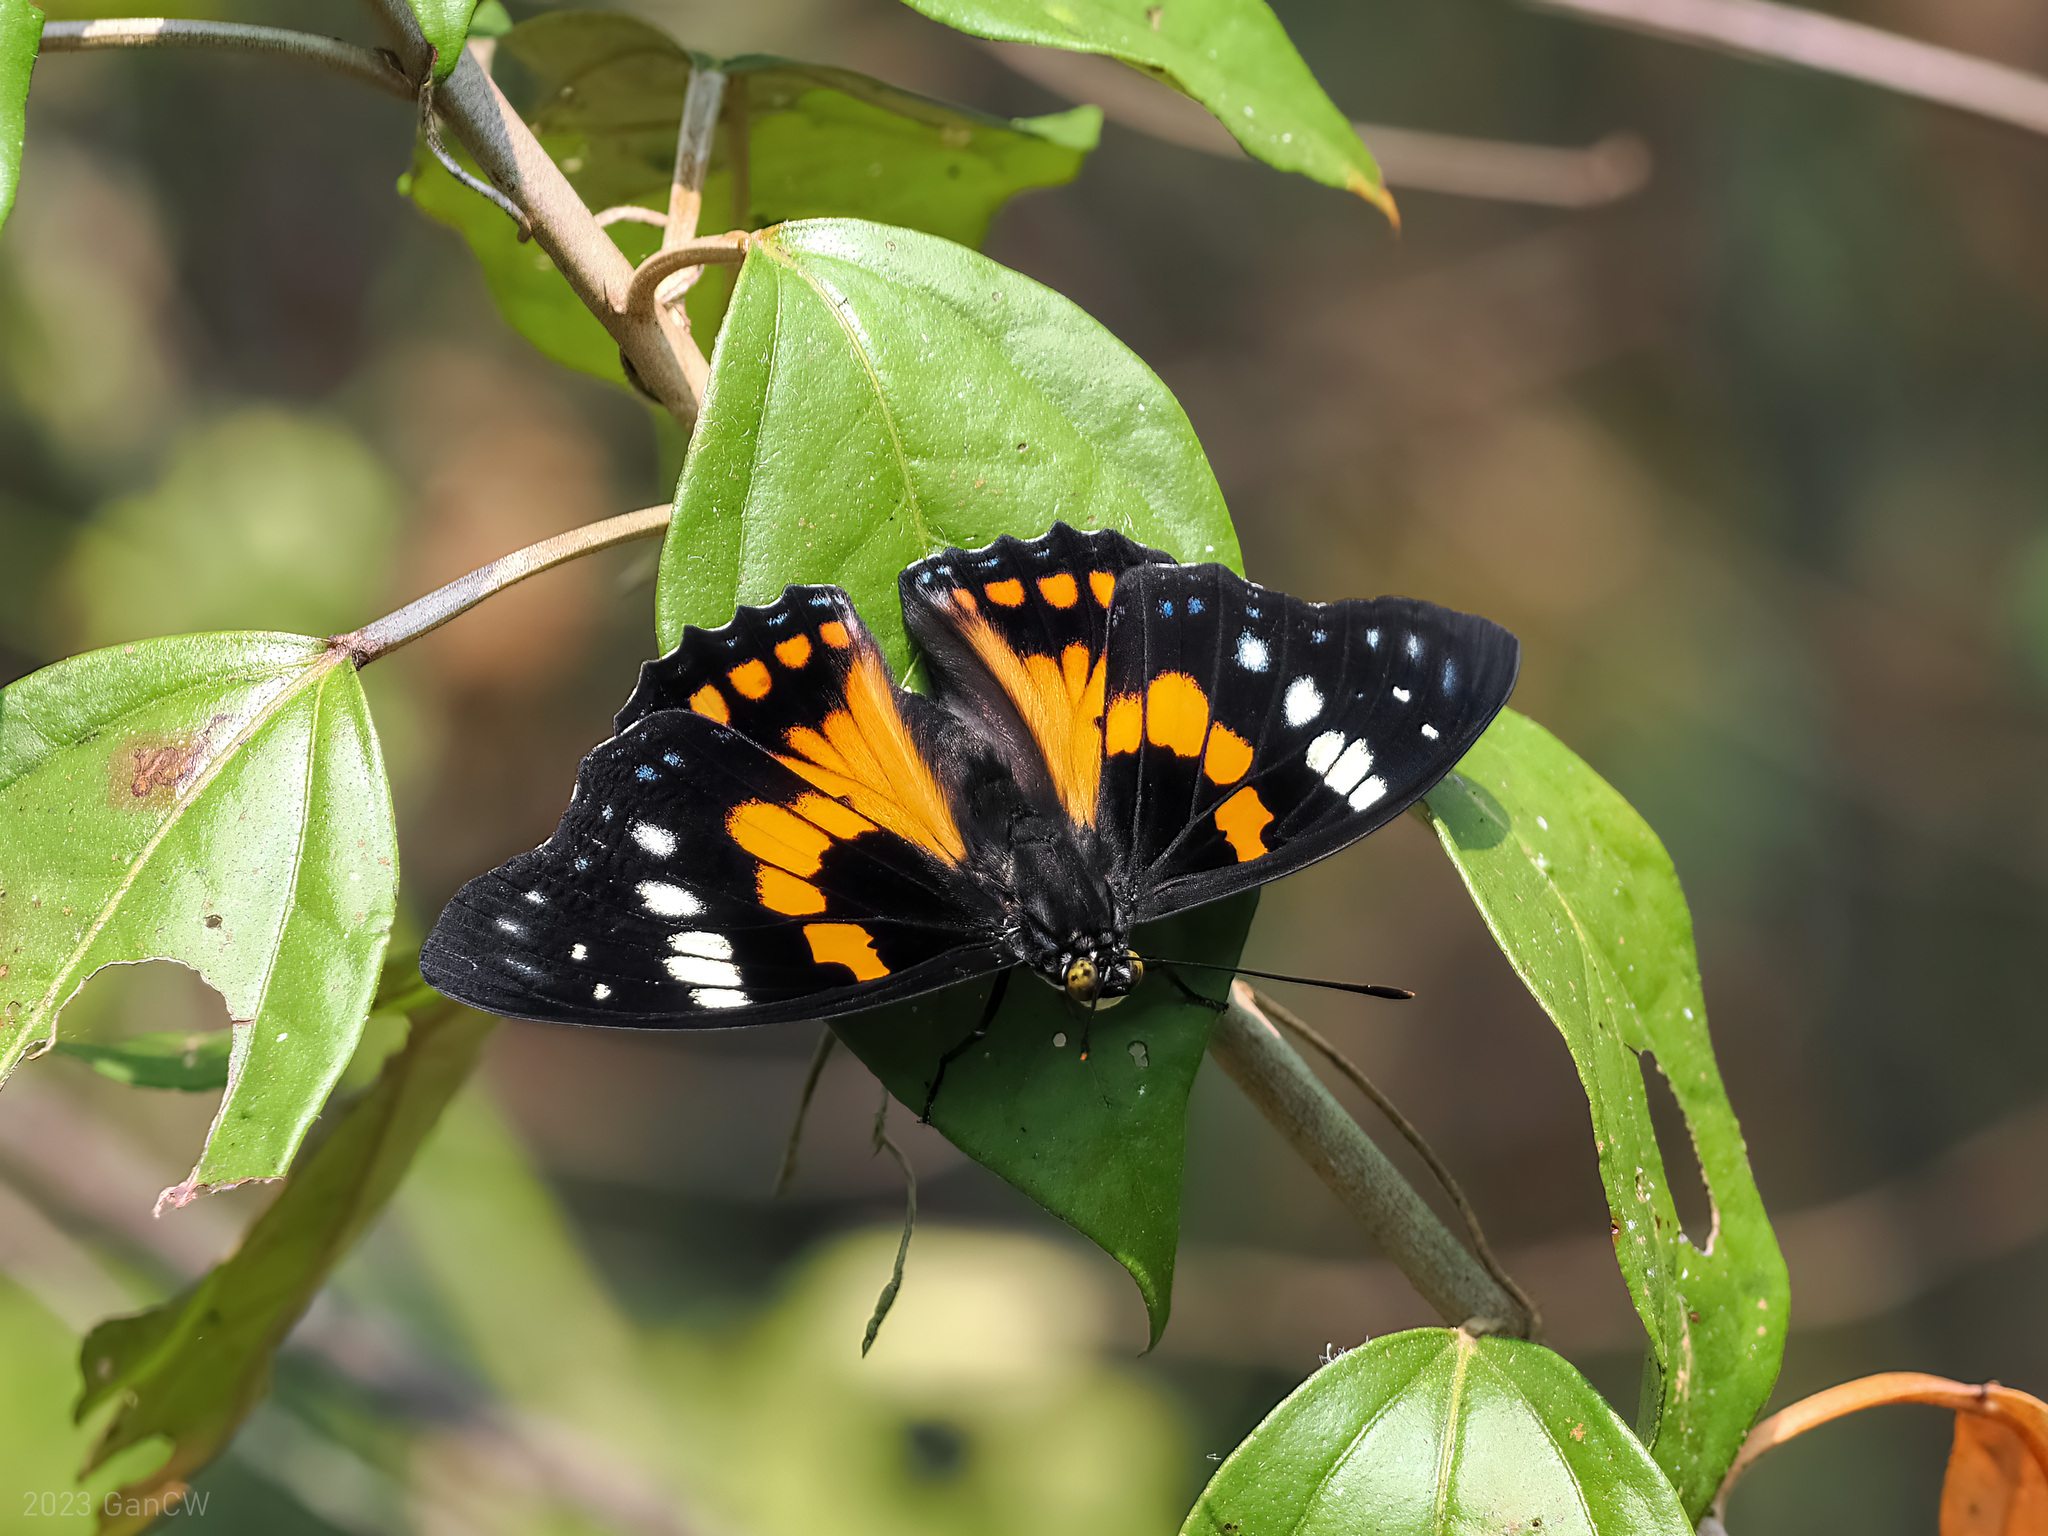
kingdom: Animalia
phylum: Arthropoda
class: Insecta
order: Lepidoptera
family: Nymphalidae
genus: Sephisa
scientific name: Sephisa chandra
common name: Eastern courtier
